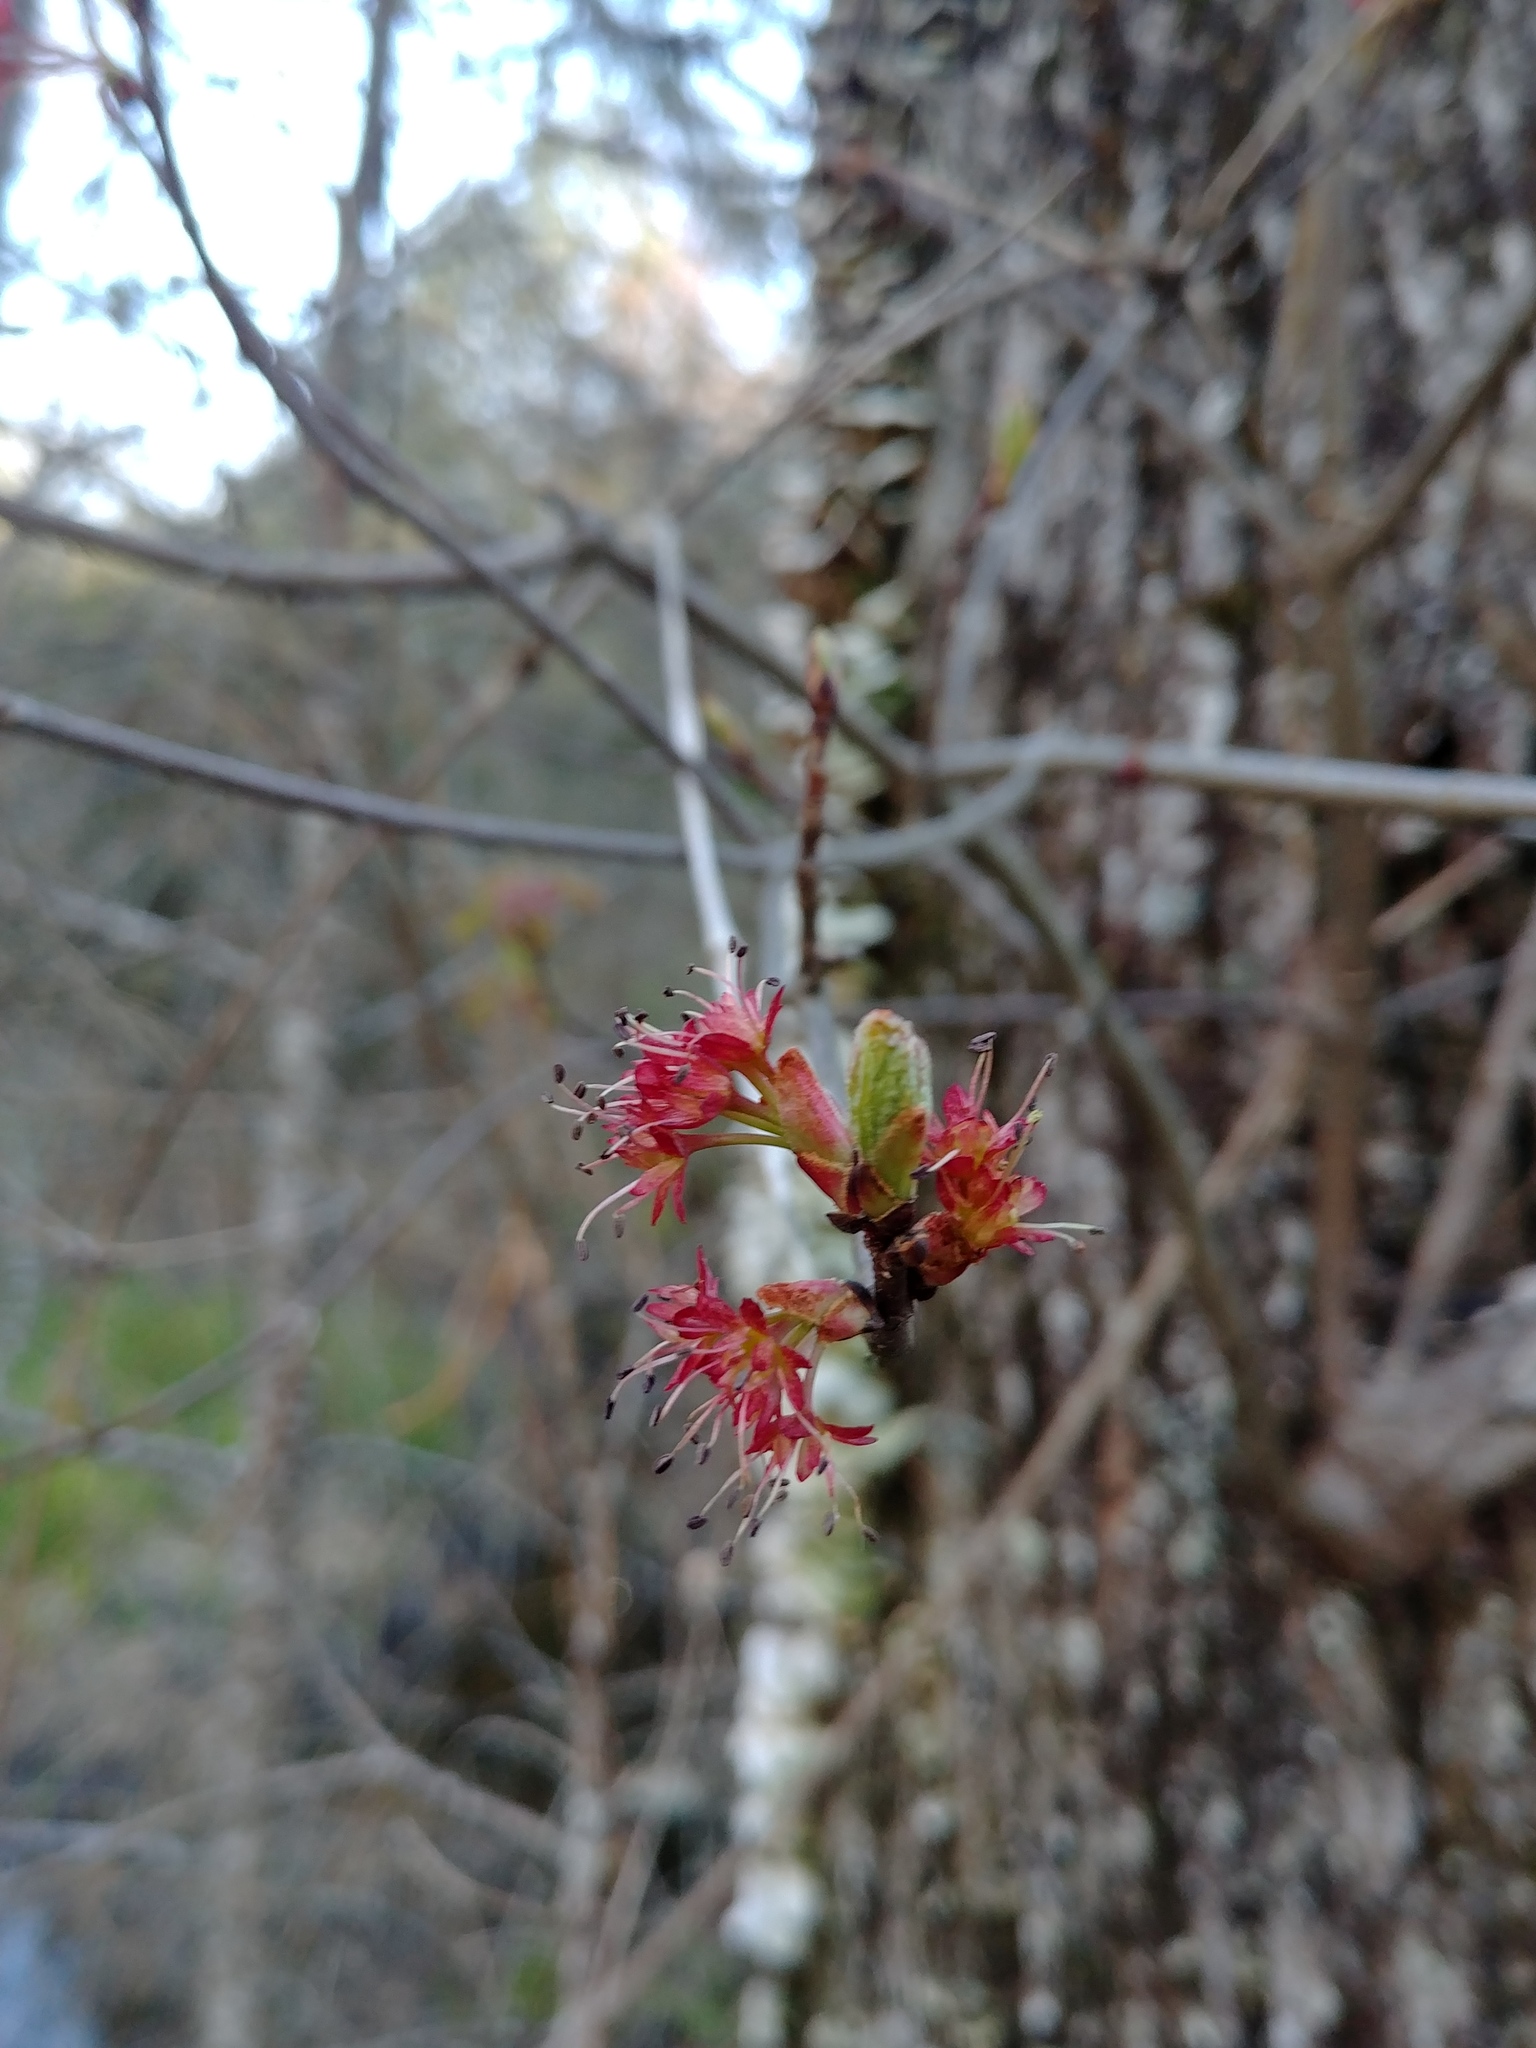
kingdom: Plantae
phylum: Tracheophyta
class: Magnoliopsida
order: Sapindales
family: Sapindaceae
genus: Acer
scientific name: Acer rubrum
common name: Red maple
